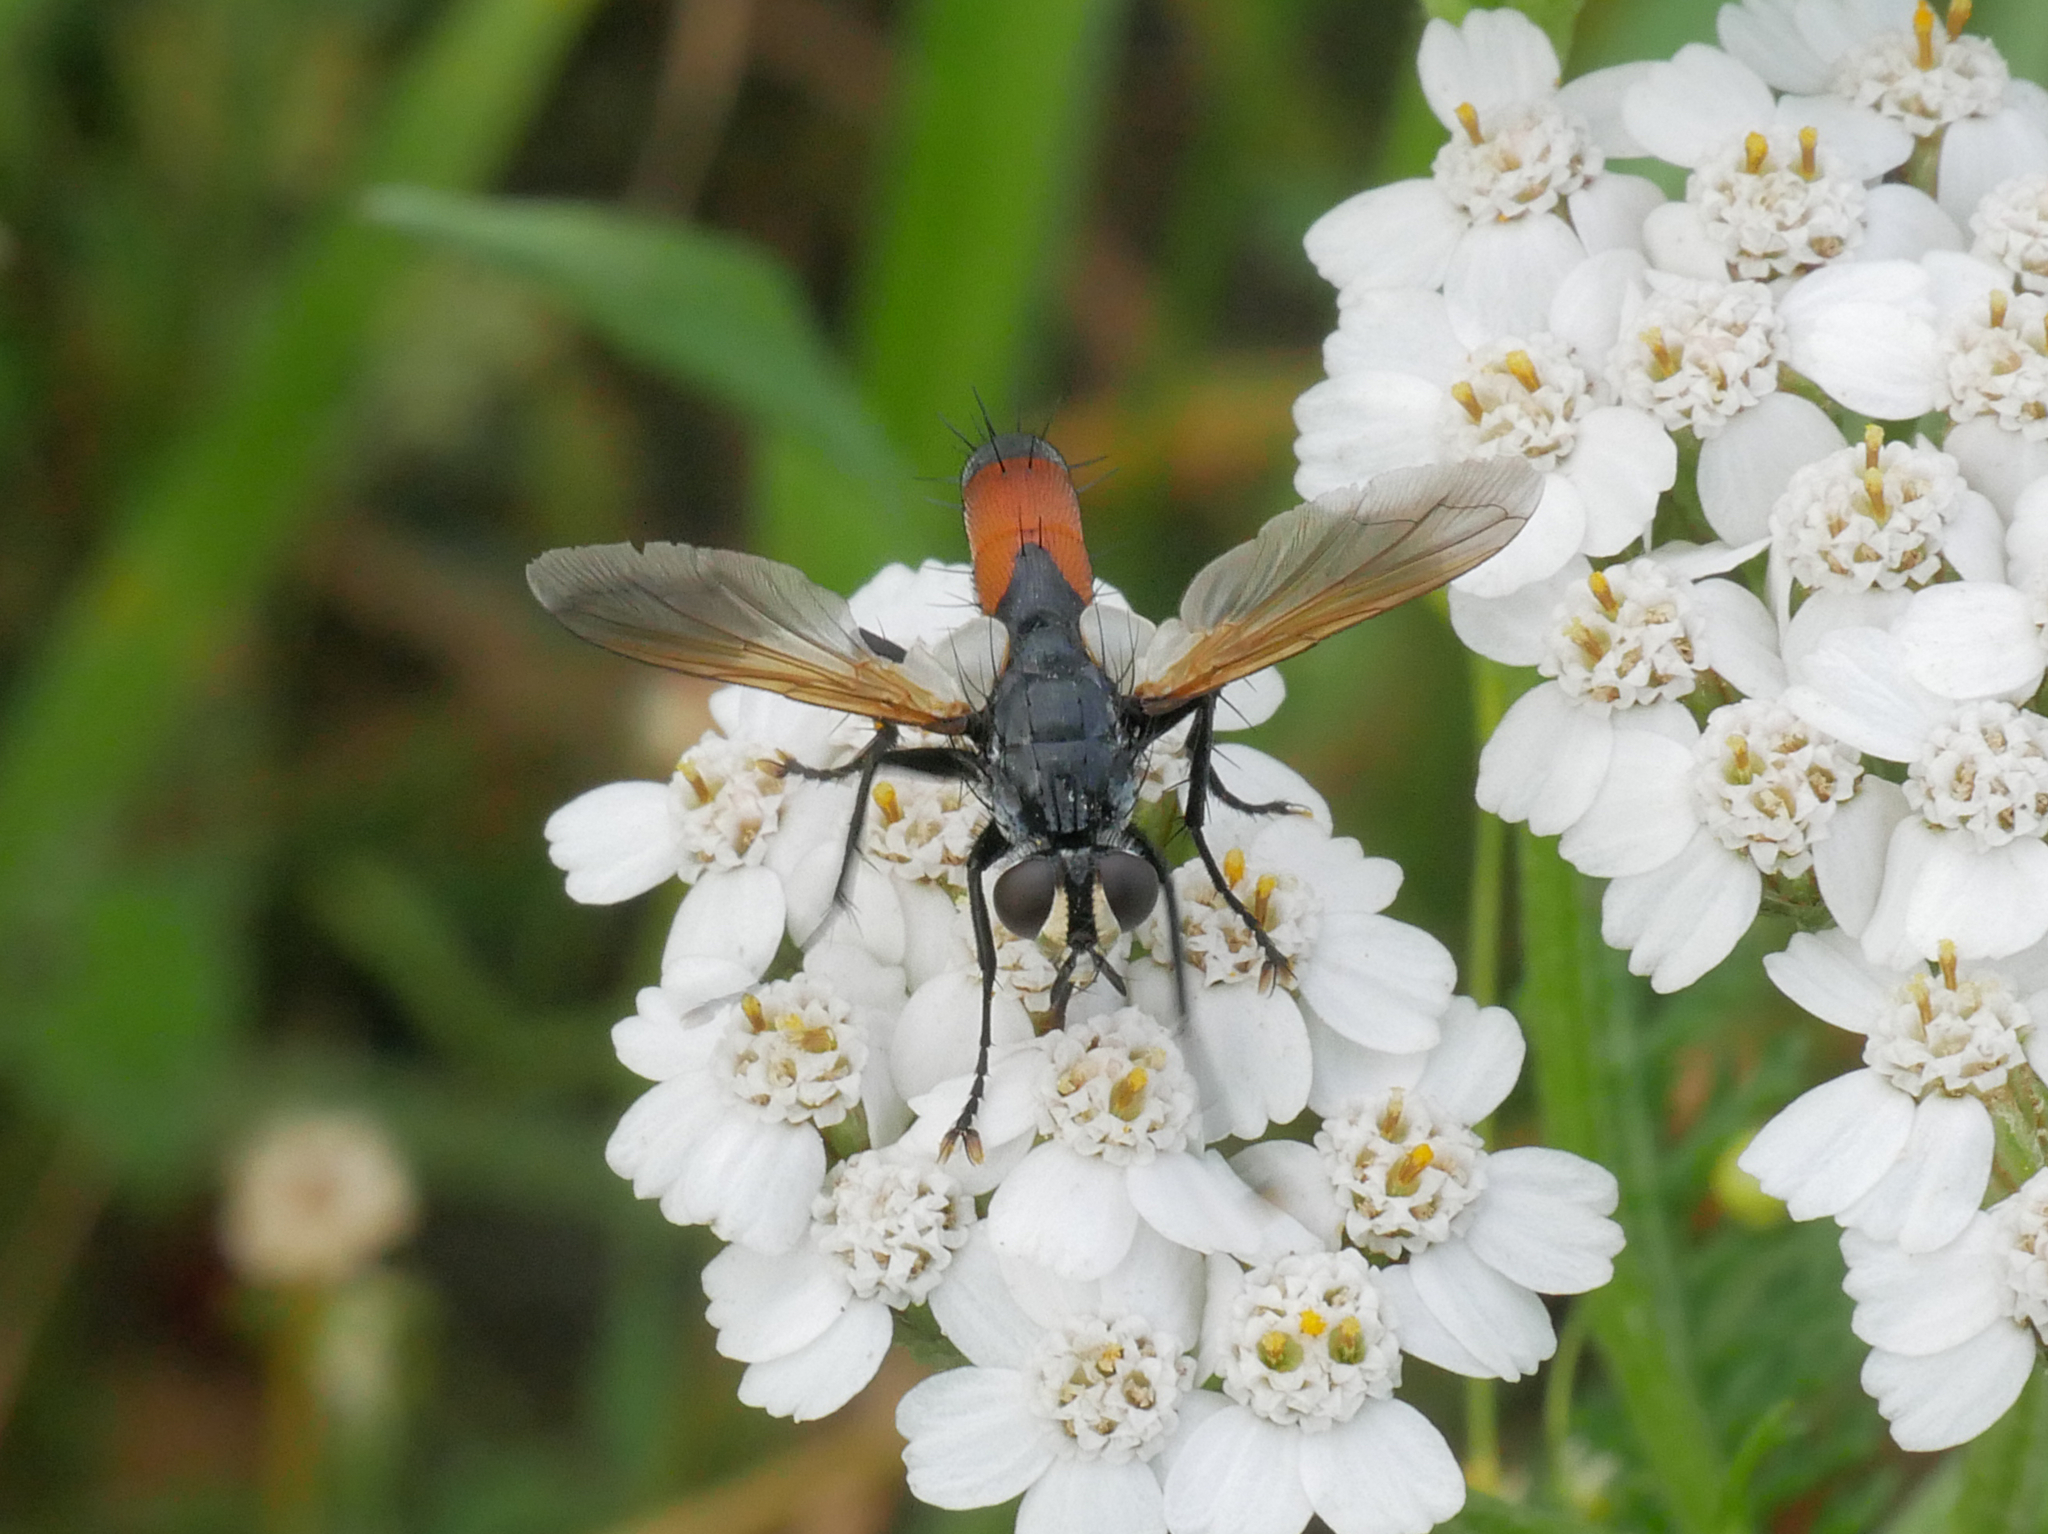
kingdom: Animalia
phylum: Arthropoda
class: Insecta
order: Diptera
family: Tachinidae
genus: Cylindromyia
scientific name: Cylindromyia bicolor
